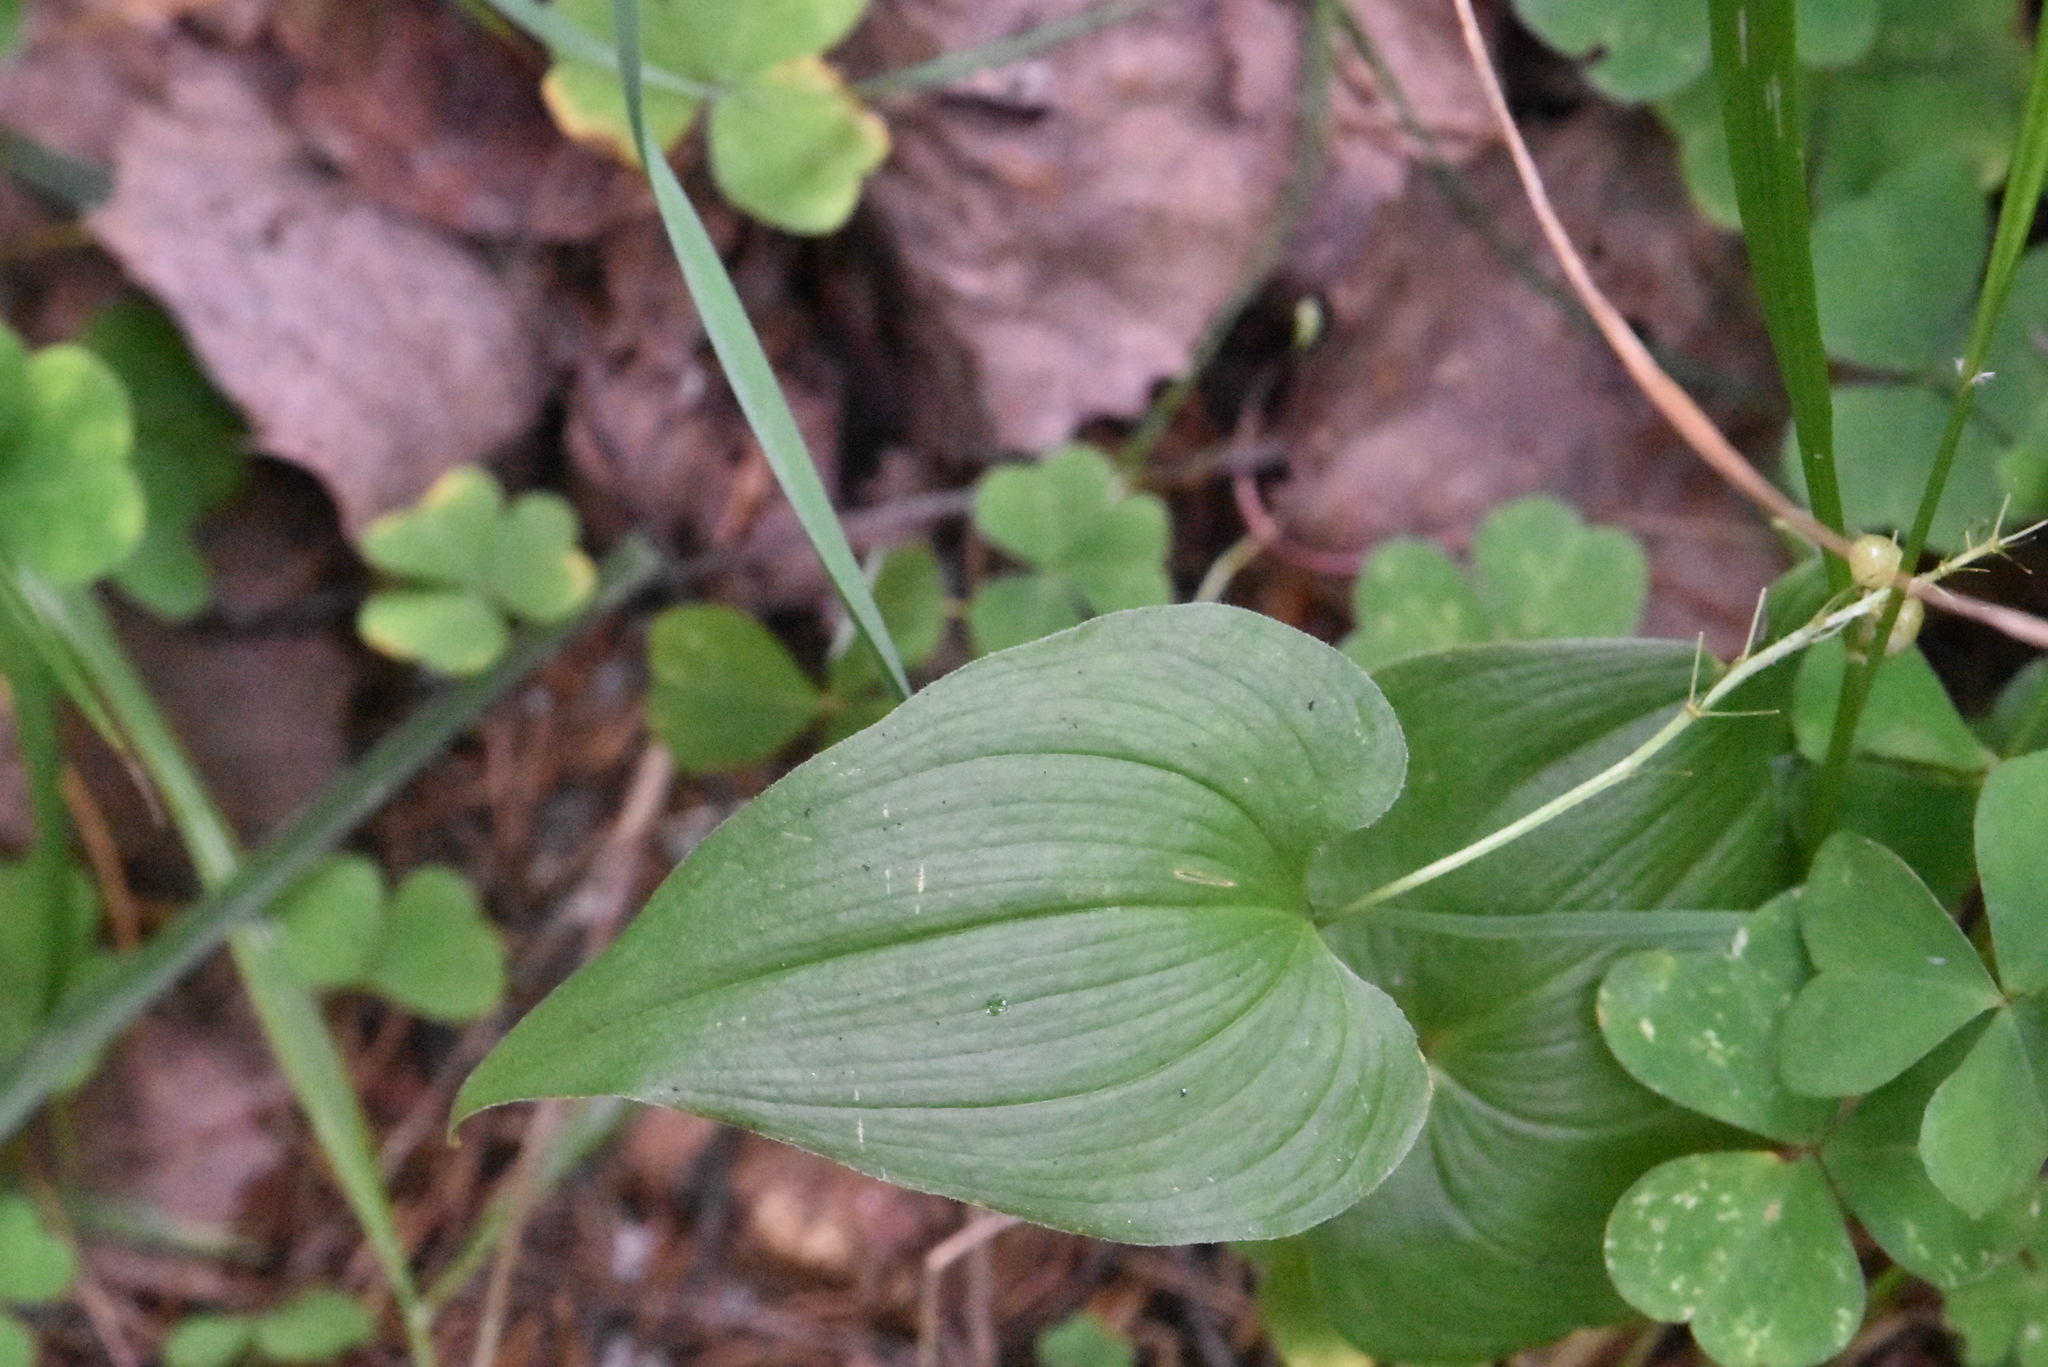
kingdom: Plantae
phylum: Tracheophyta
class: Liliopsida
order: Asparagales
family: Asparagaceae
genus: Maianthemum
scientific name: Maianthemum bifolium
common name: May lily
